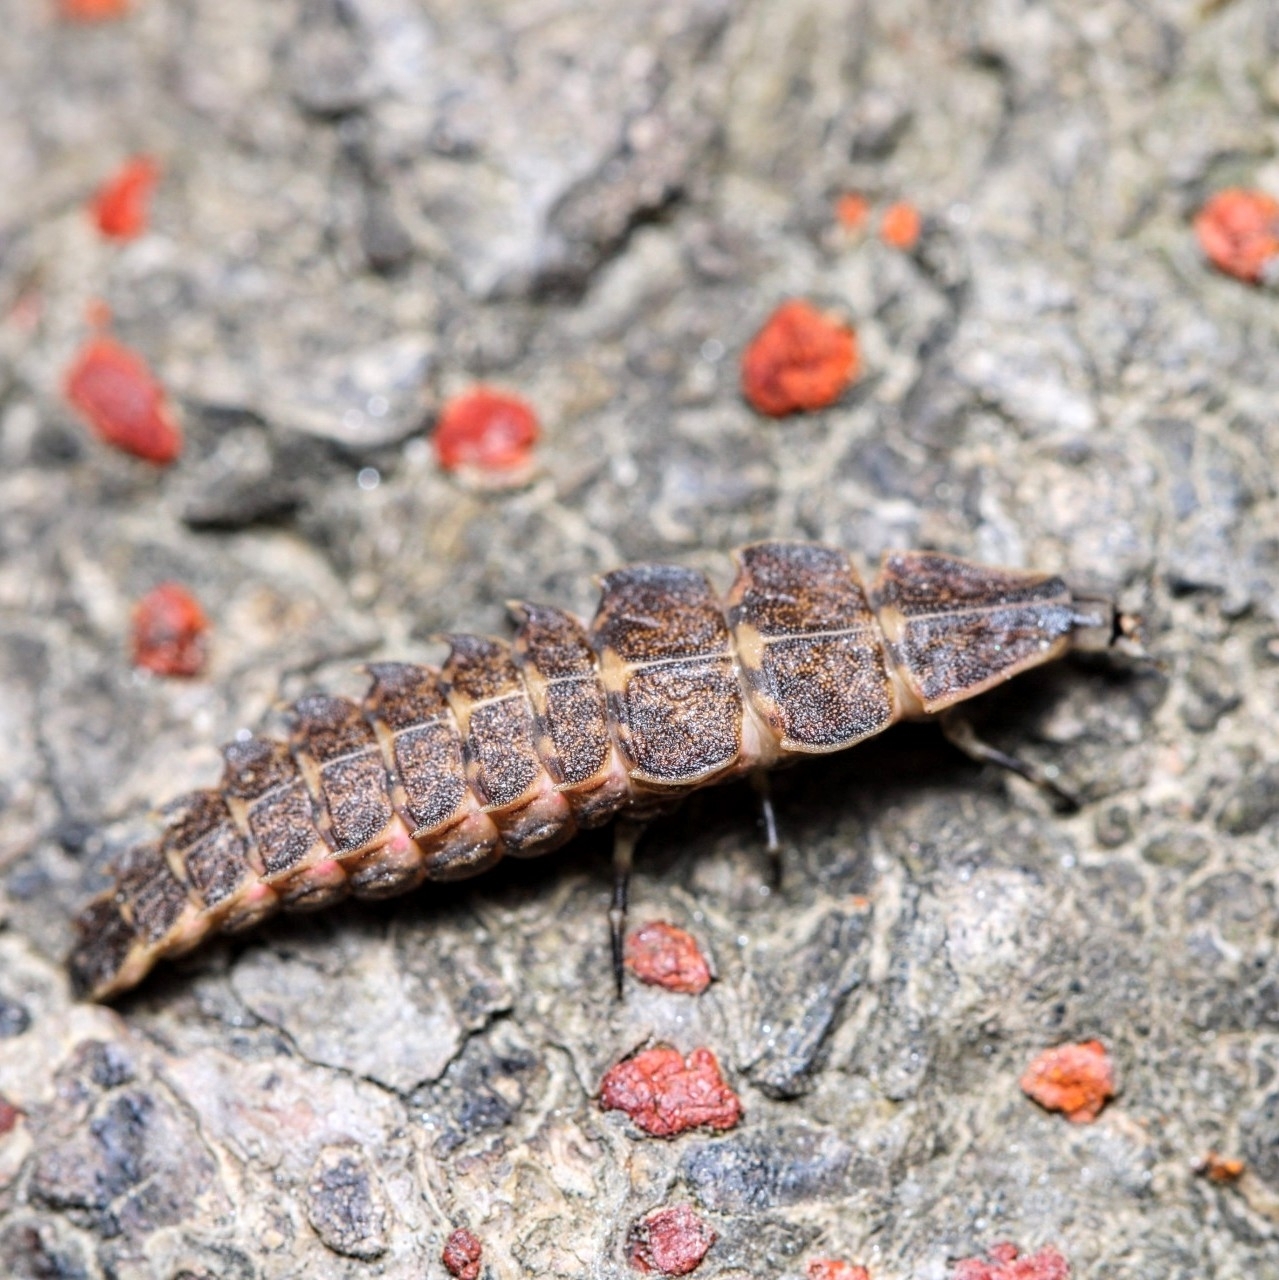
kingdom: Animalia
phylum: Arthropoda
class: Insecta
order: Coleoptera
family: Lampyridae
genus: Pyractomena
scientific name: Pyractomena
